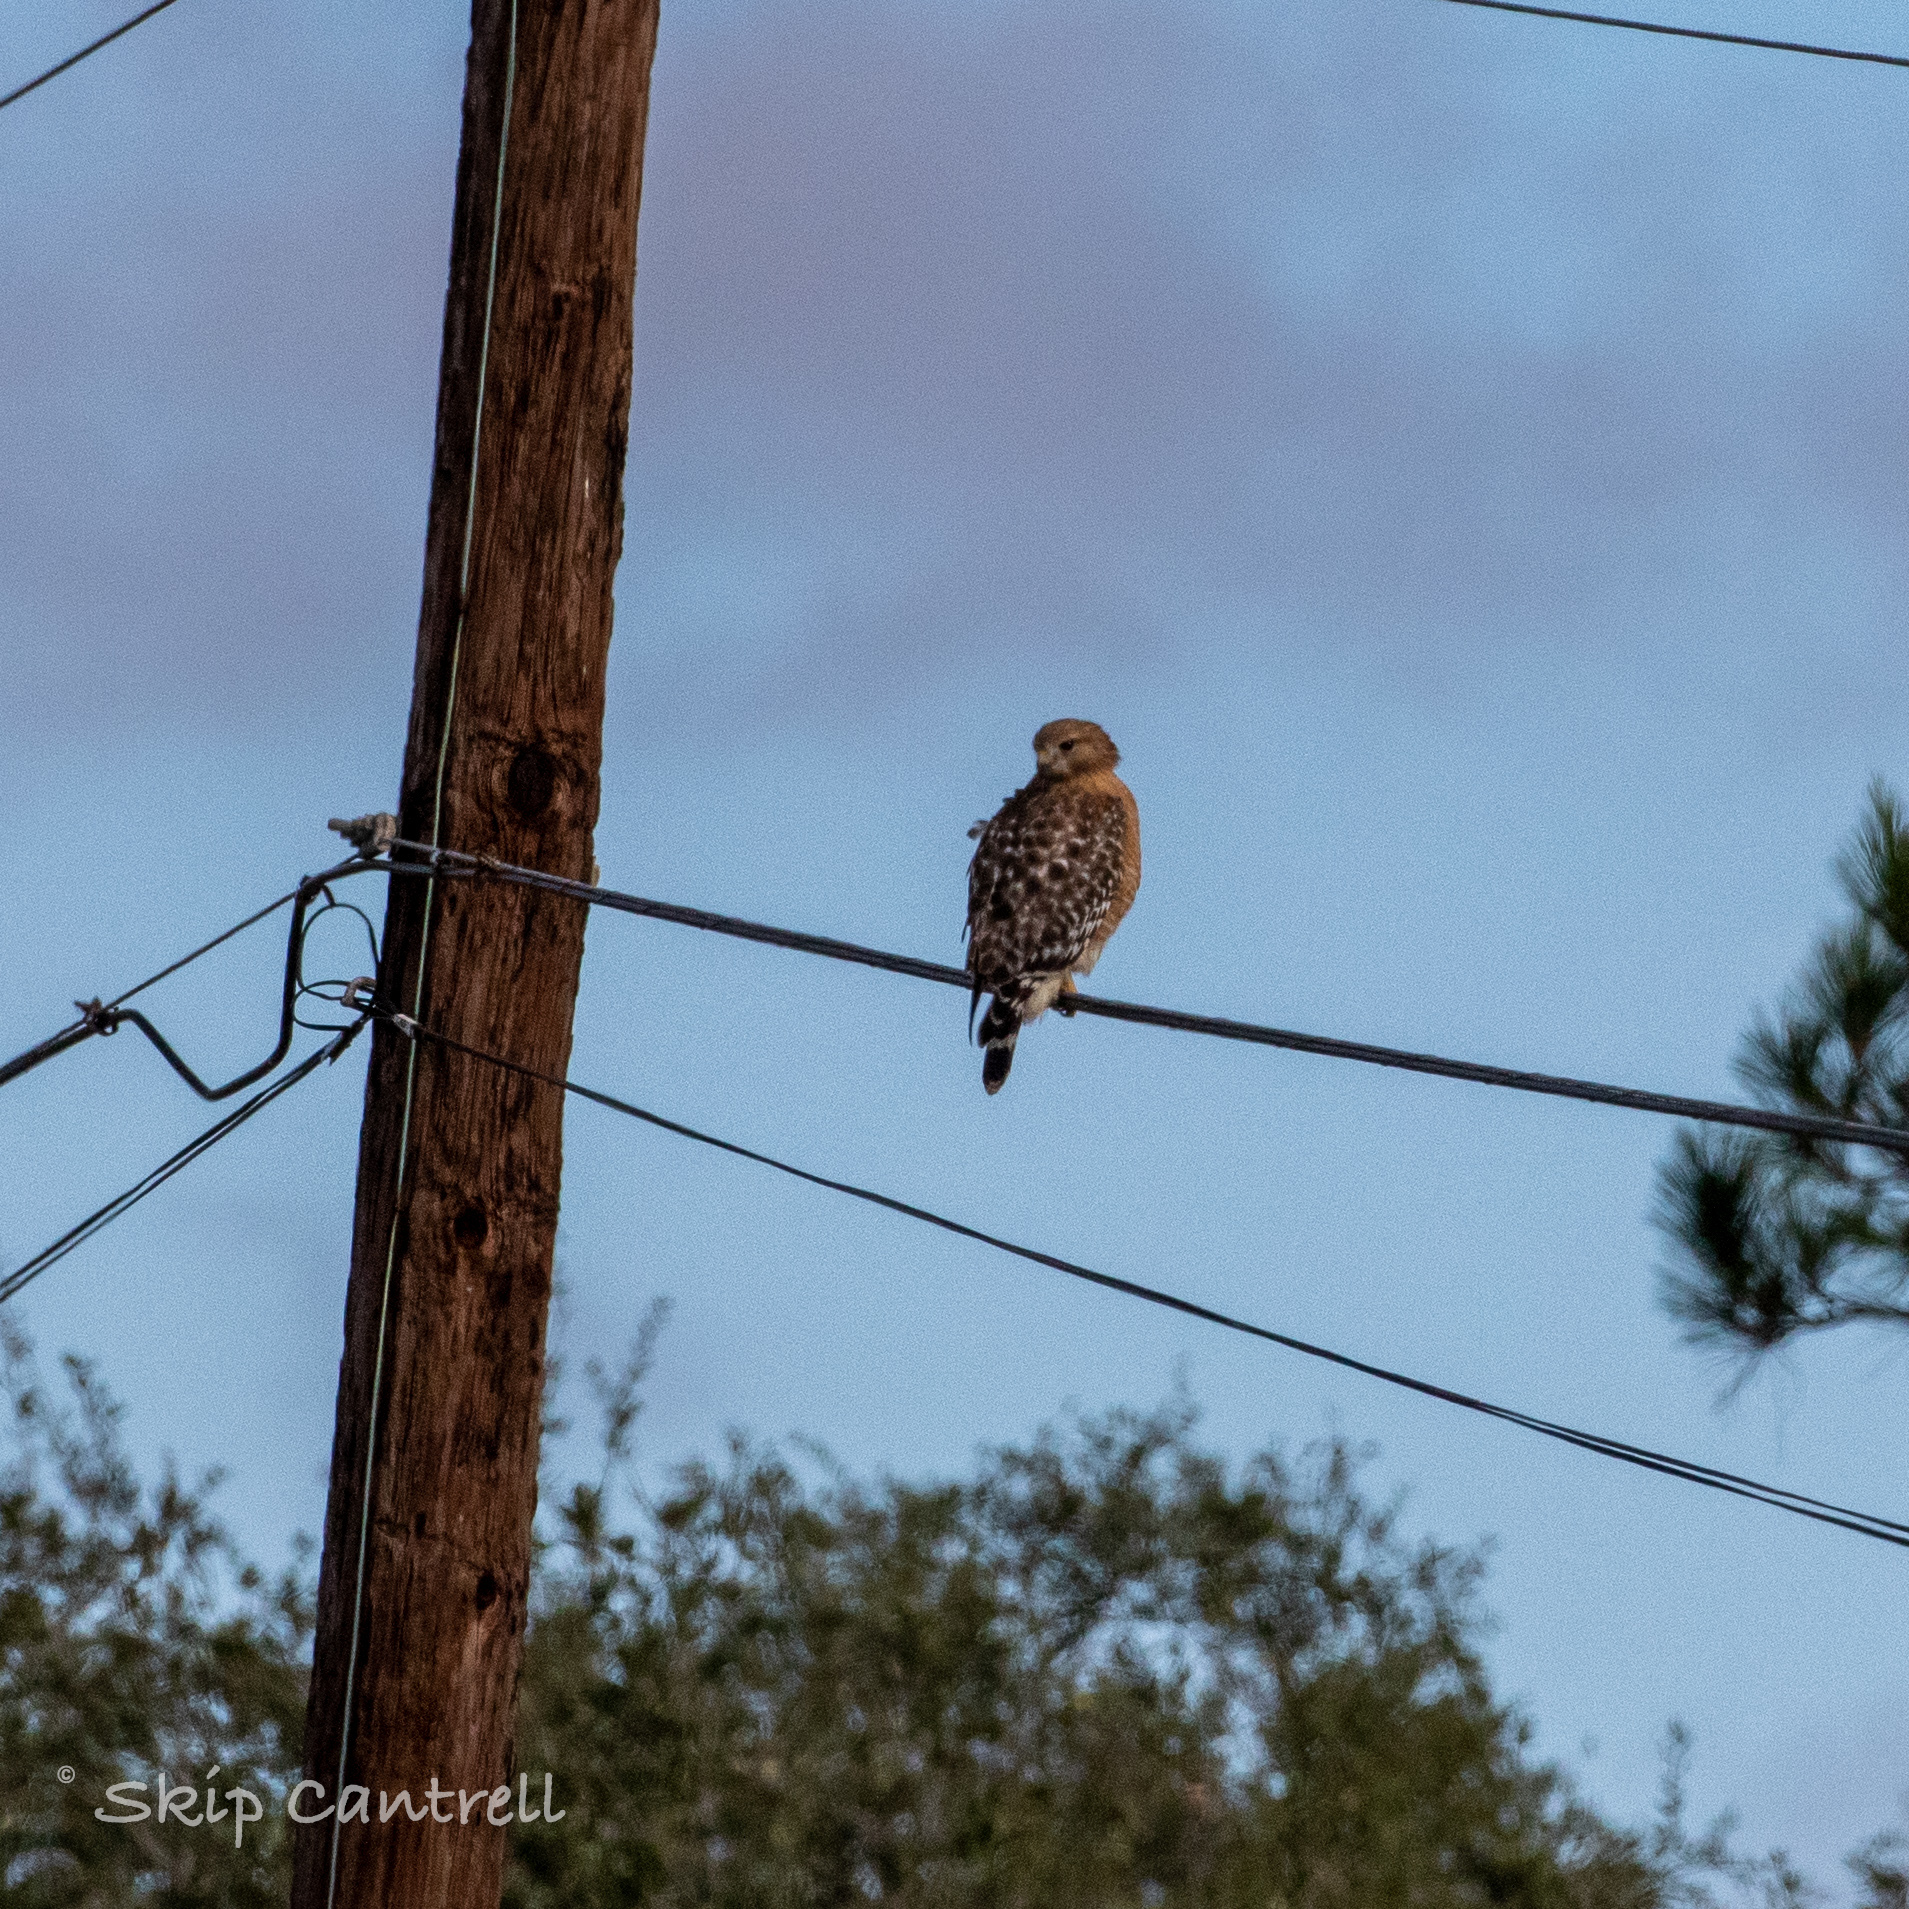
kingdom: Animalia
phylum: Chordata
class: Aves
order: Accipitriformes
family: Accipitridae
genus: Buteo
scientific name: Buteo lineatus
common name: Red-shouldered hawk
